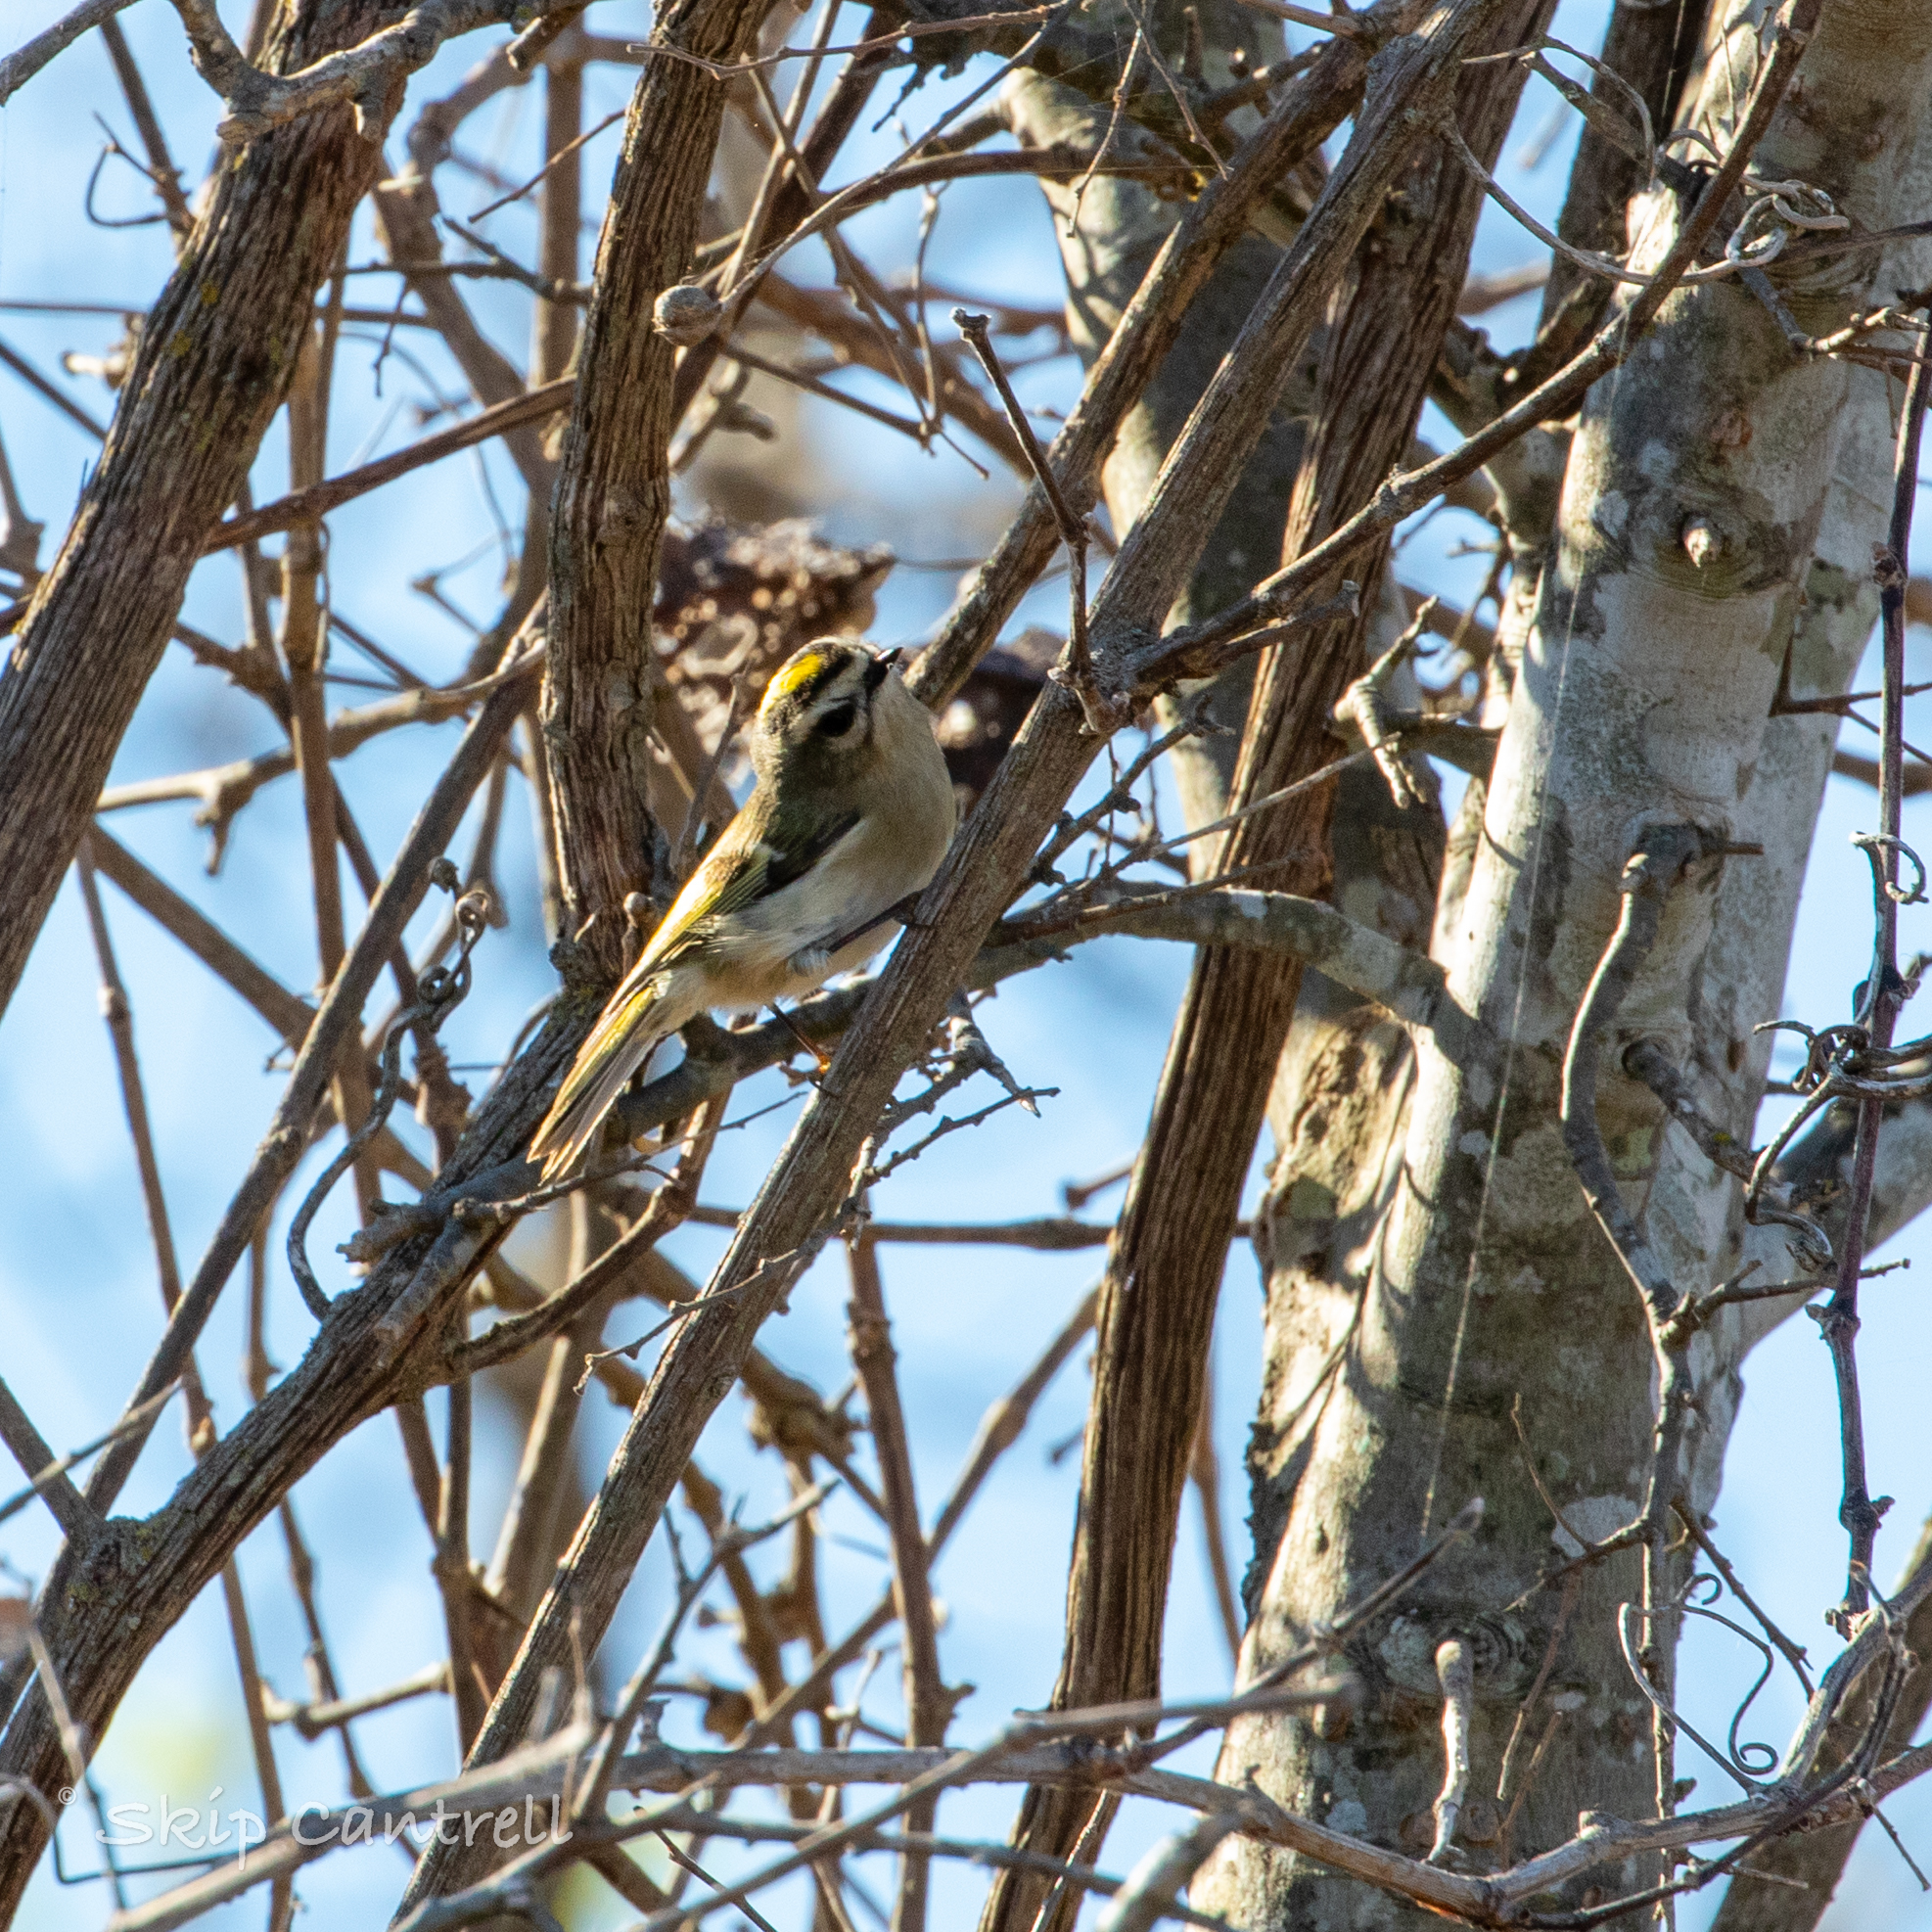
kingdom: Animalia
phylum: Chordata
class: Aves
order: Passeriformes
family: Regulidae
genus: Regulus
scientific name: Regulus satrapa
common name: Golden-crowned kinglet
